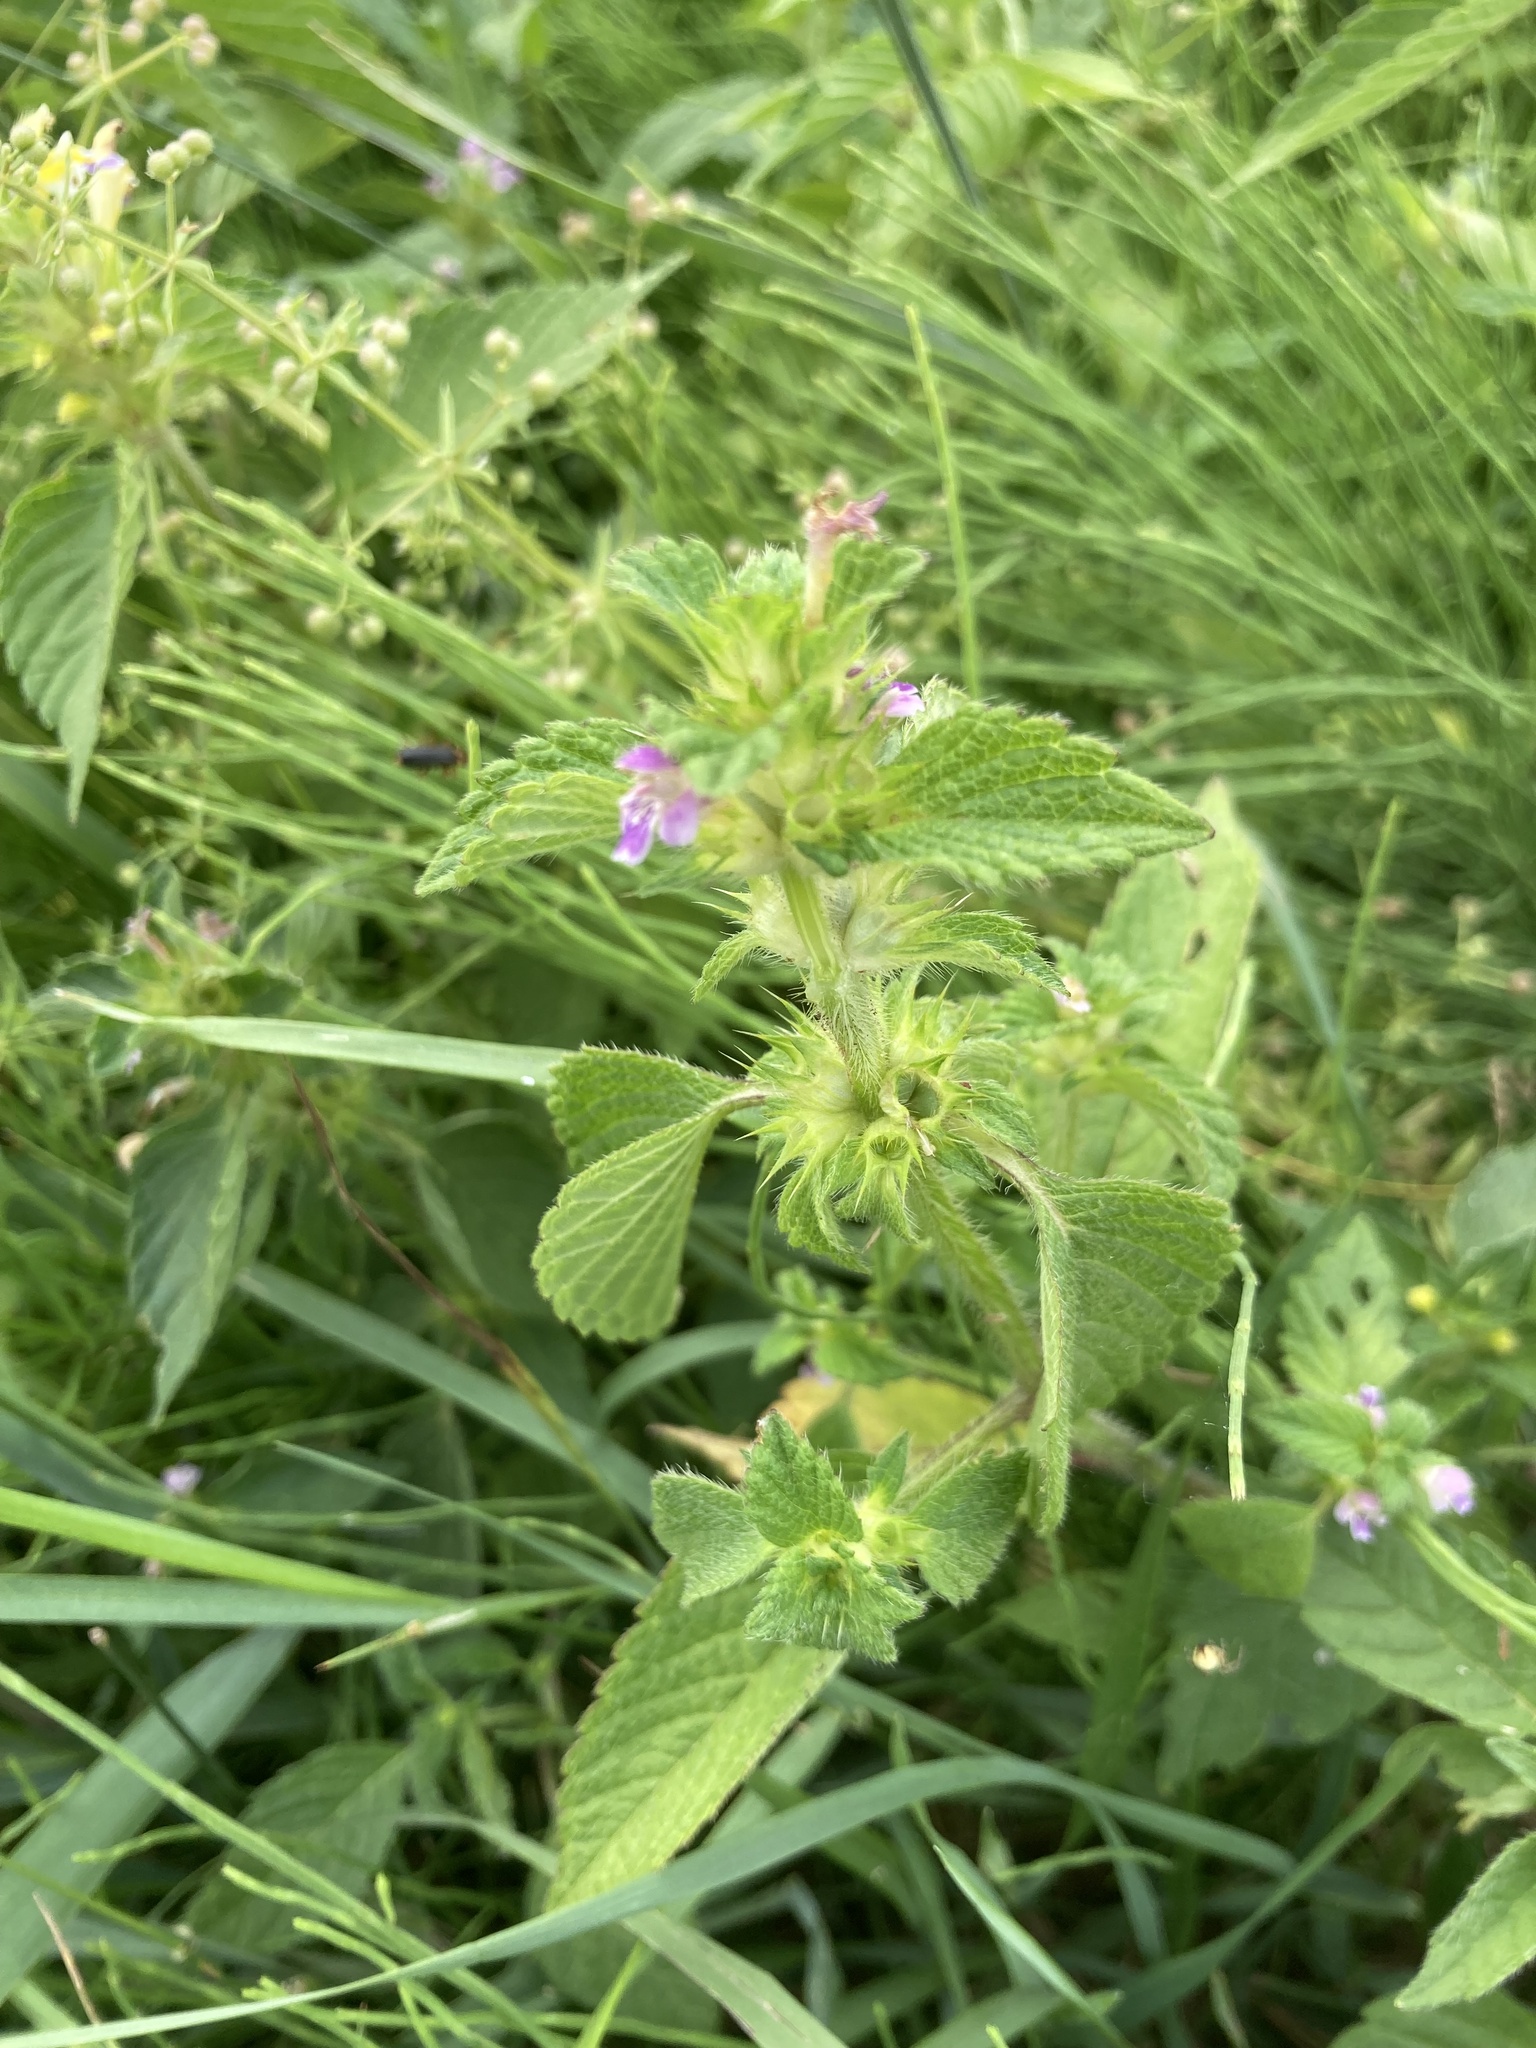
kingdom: Plantae
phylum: Tracheophyta
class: Magnoliopsida
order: Lamiales
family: Lamiaceae
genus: Galeopsis
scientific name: Galeopsis bifida
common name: Bifid hemp-nettle
